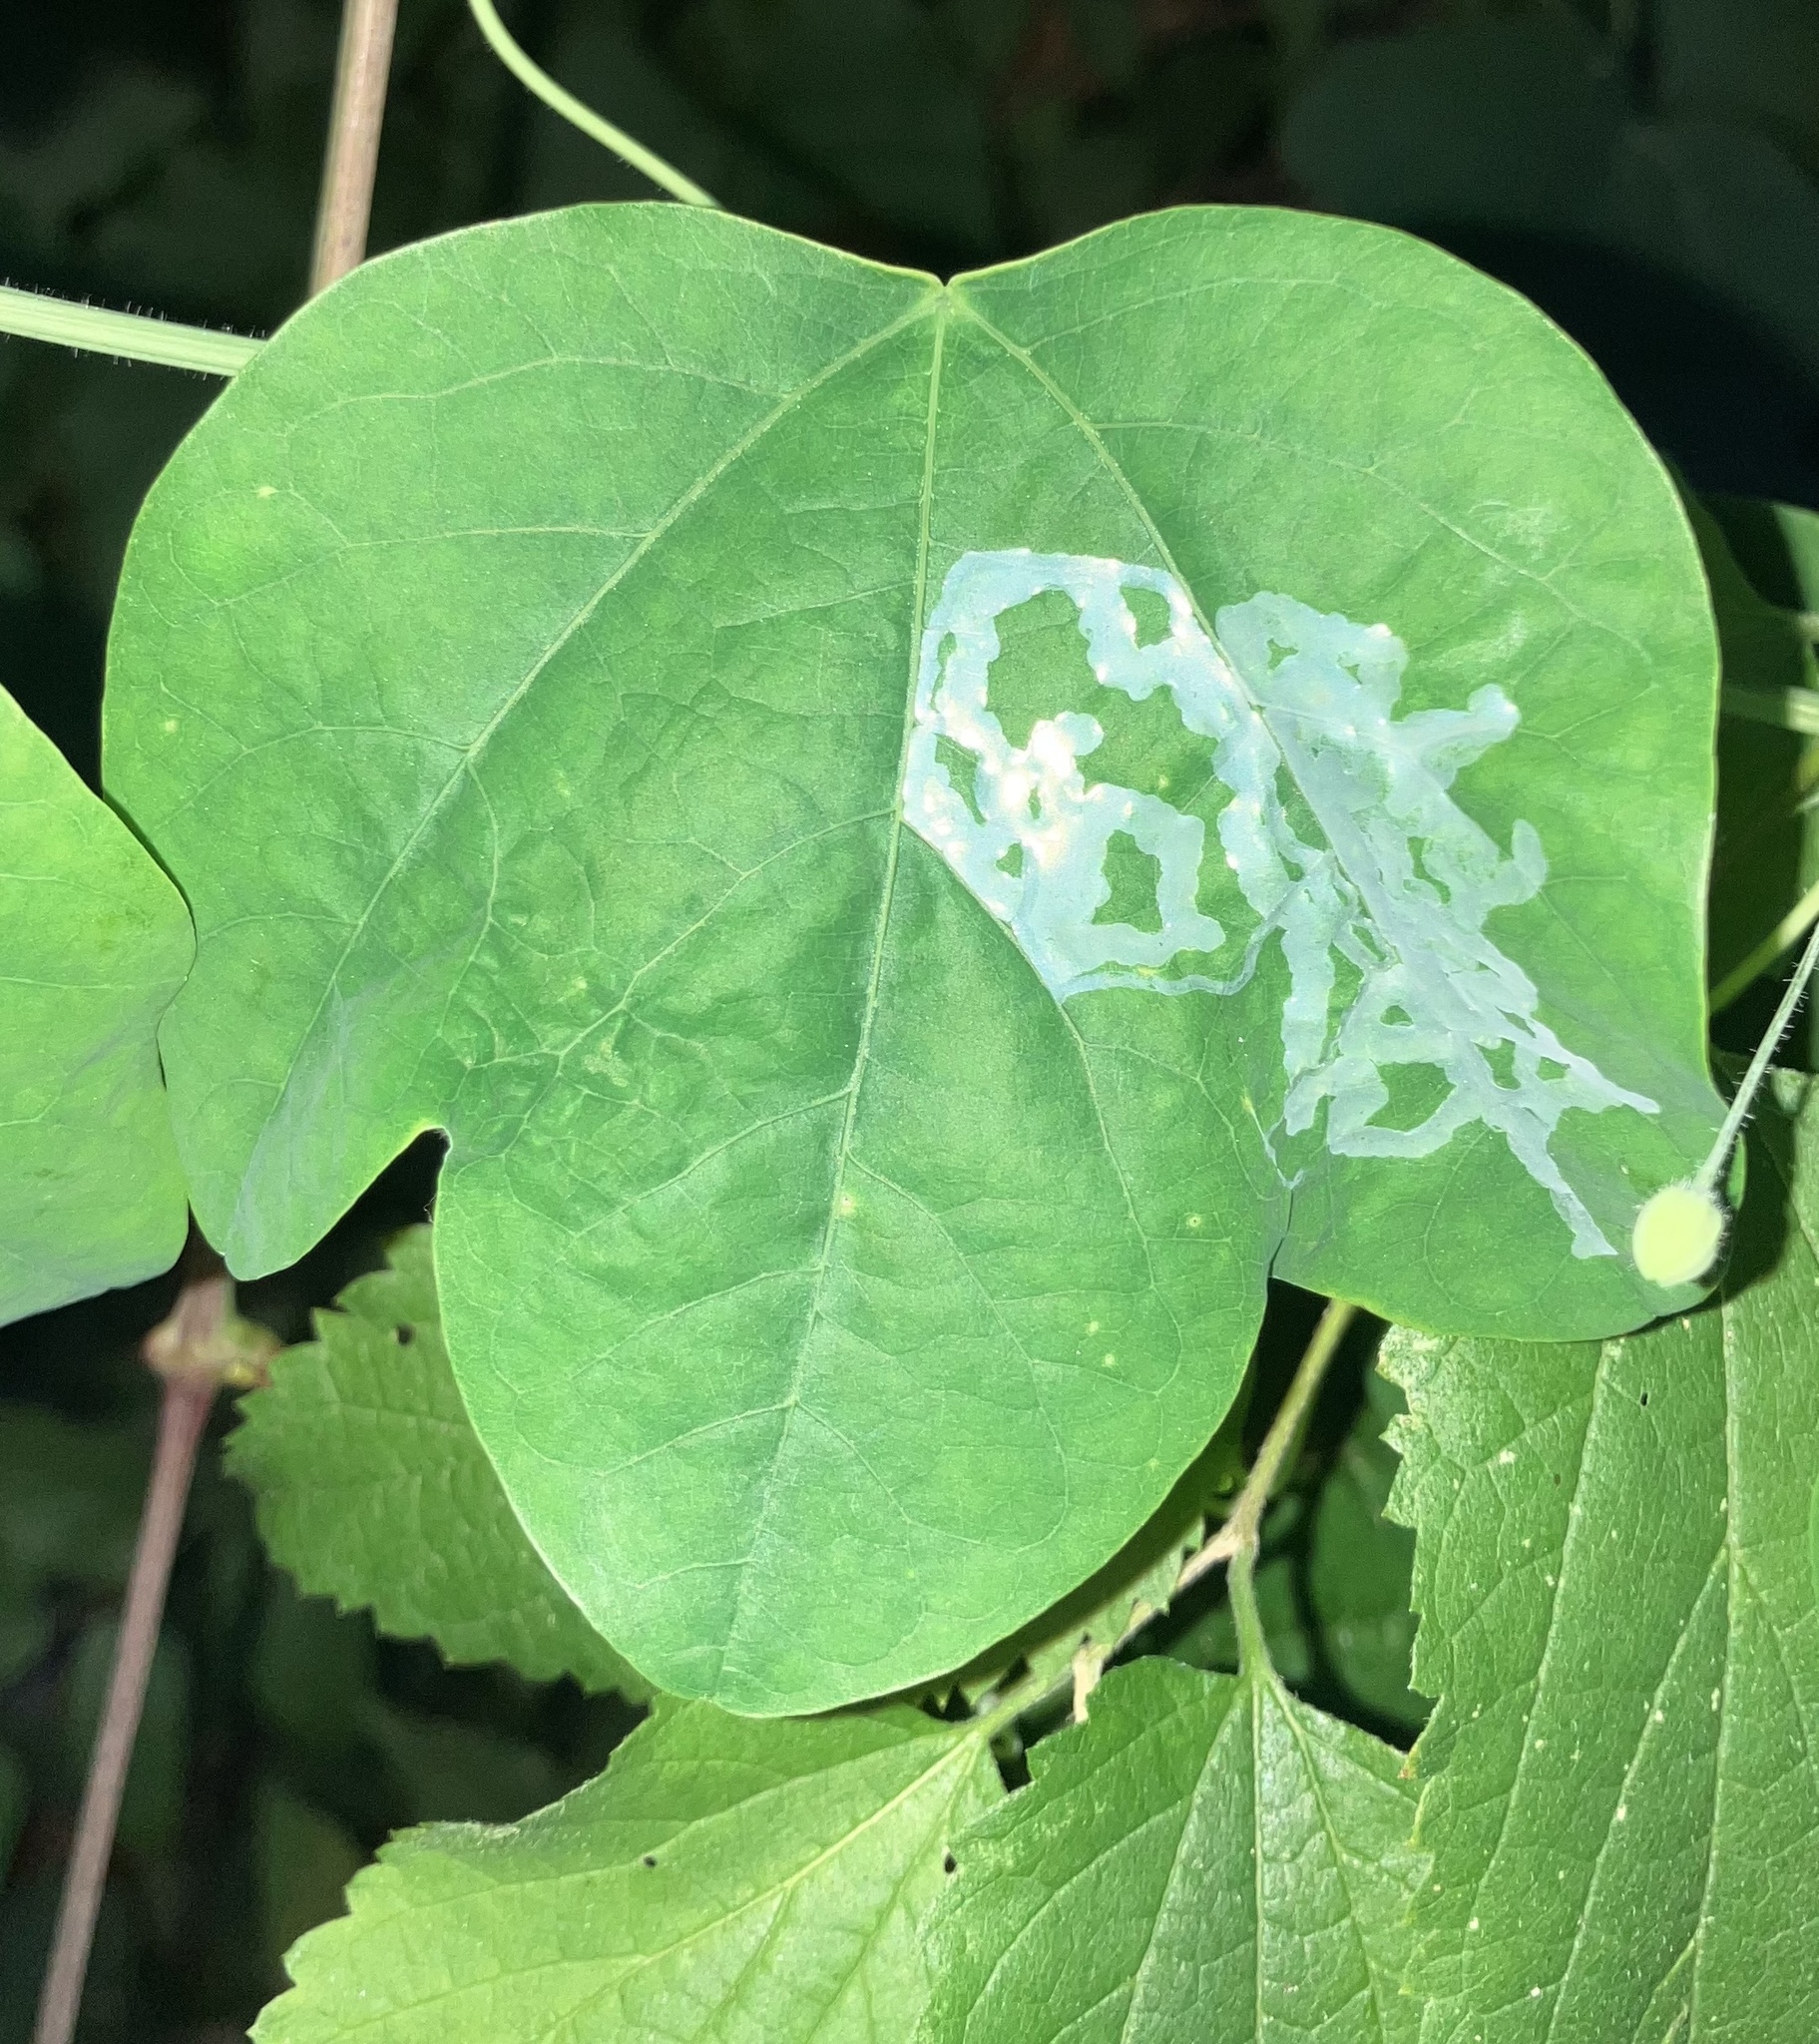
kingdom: Animalia
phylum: Arthropoda
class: Insecta
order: Diptera
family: Agromyzidae
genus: Liriomyza
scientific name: Liriomyza schmidti
